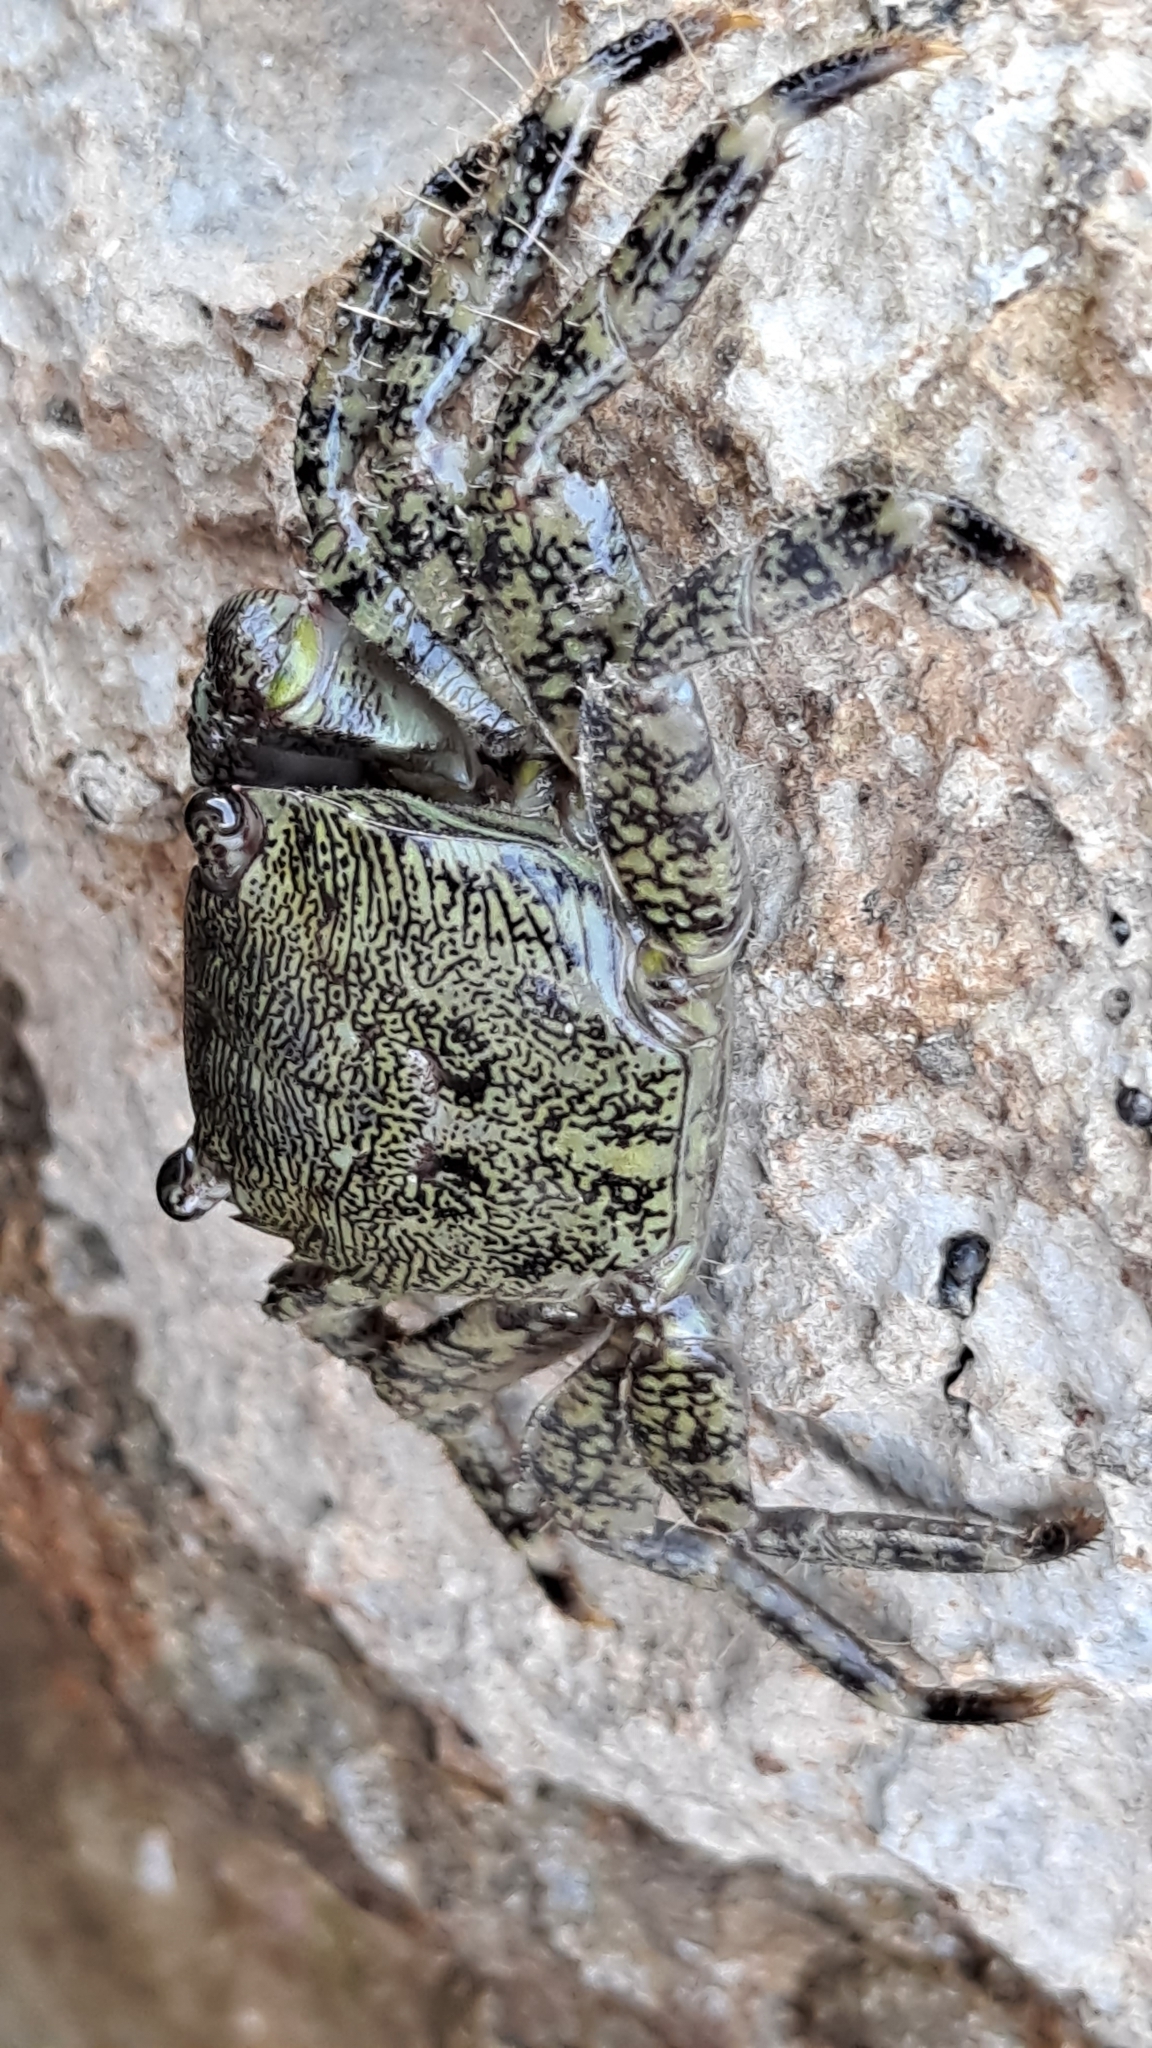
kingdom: Animalia
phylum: Arthropoda
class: Malacostraca
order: Decapoda
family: Grapsidae
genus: Pachygrapsus
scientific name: Pachygrapsus marmoratus
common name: Marbled rock crab
